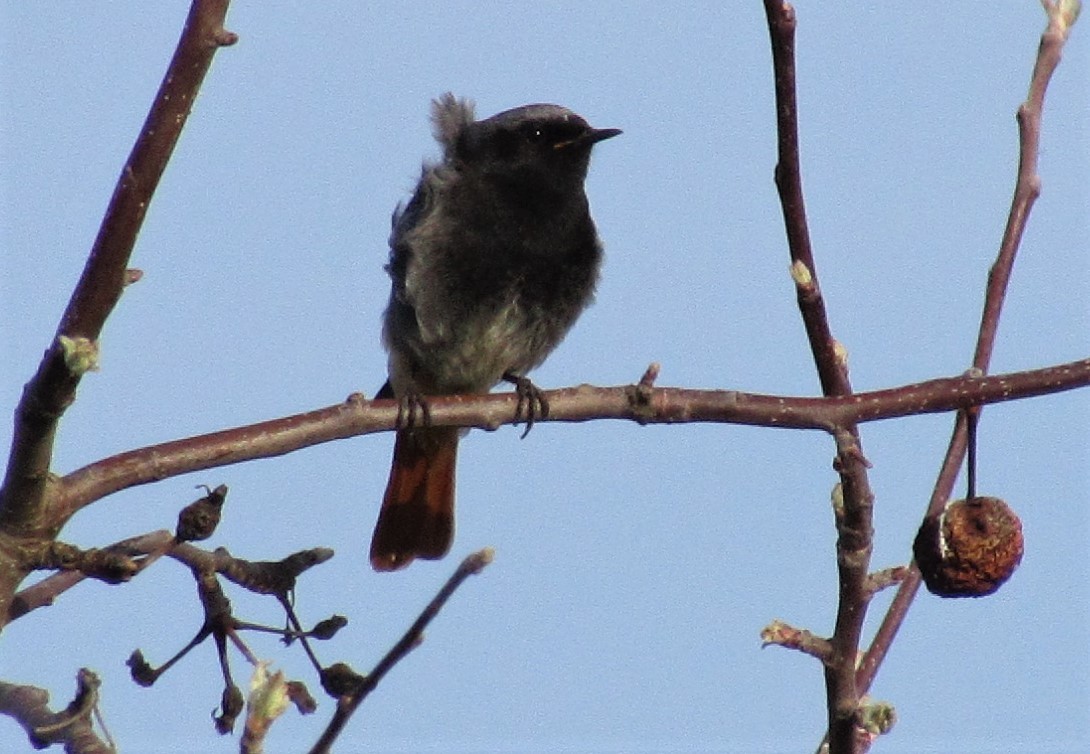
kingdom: Animalia
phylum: Chordata
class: Aves
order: Passeriformes
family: Muscicapidae
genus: Phoenicurus
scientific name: Phoenicurus ochruros
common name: Black redstart
